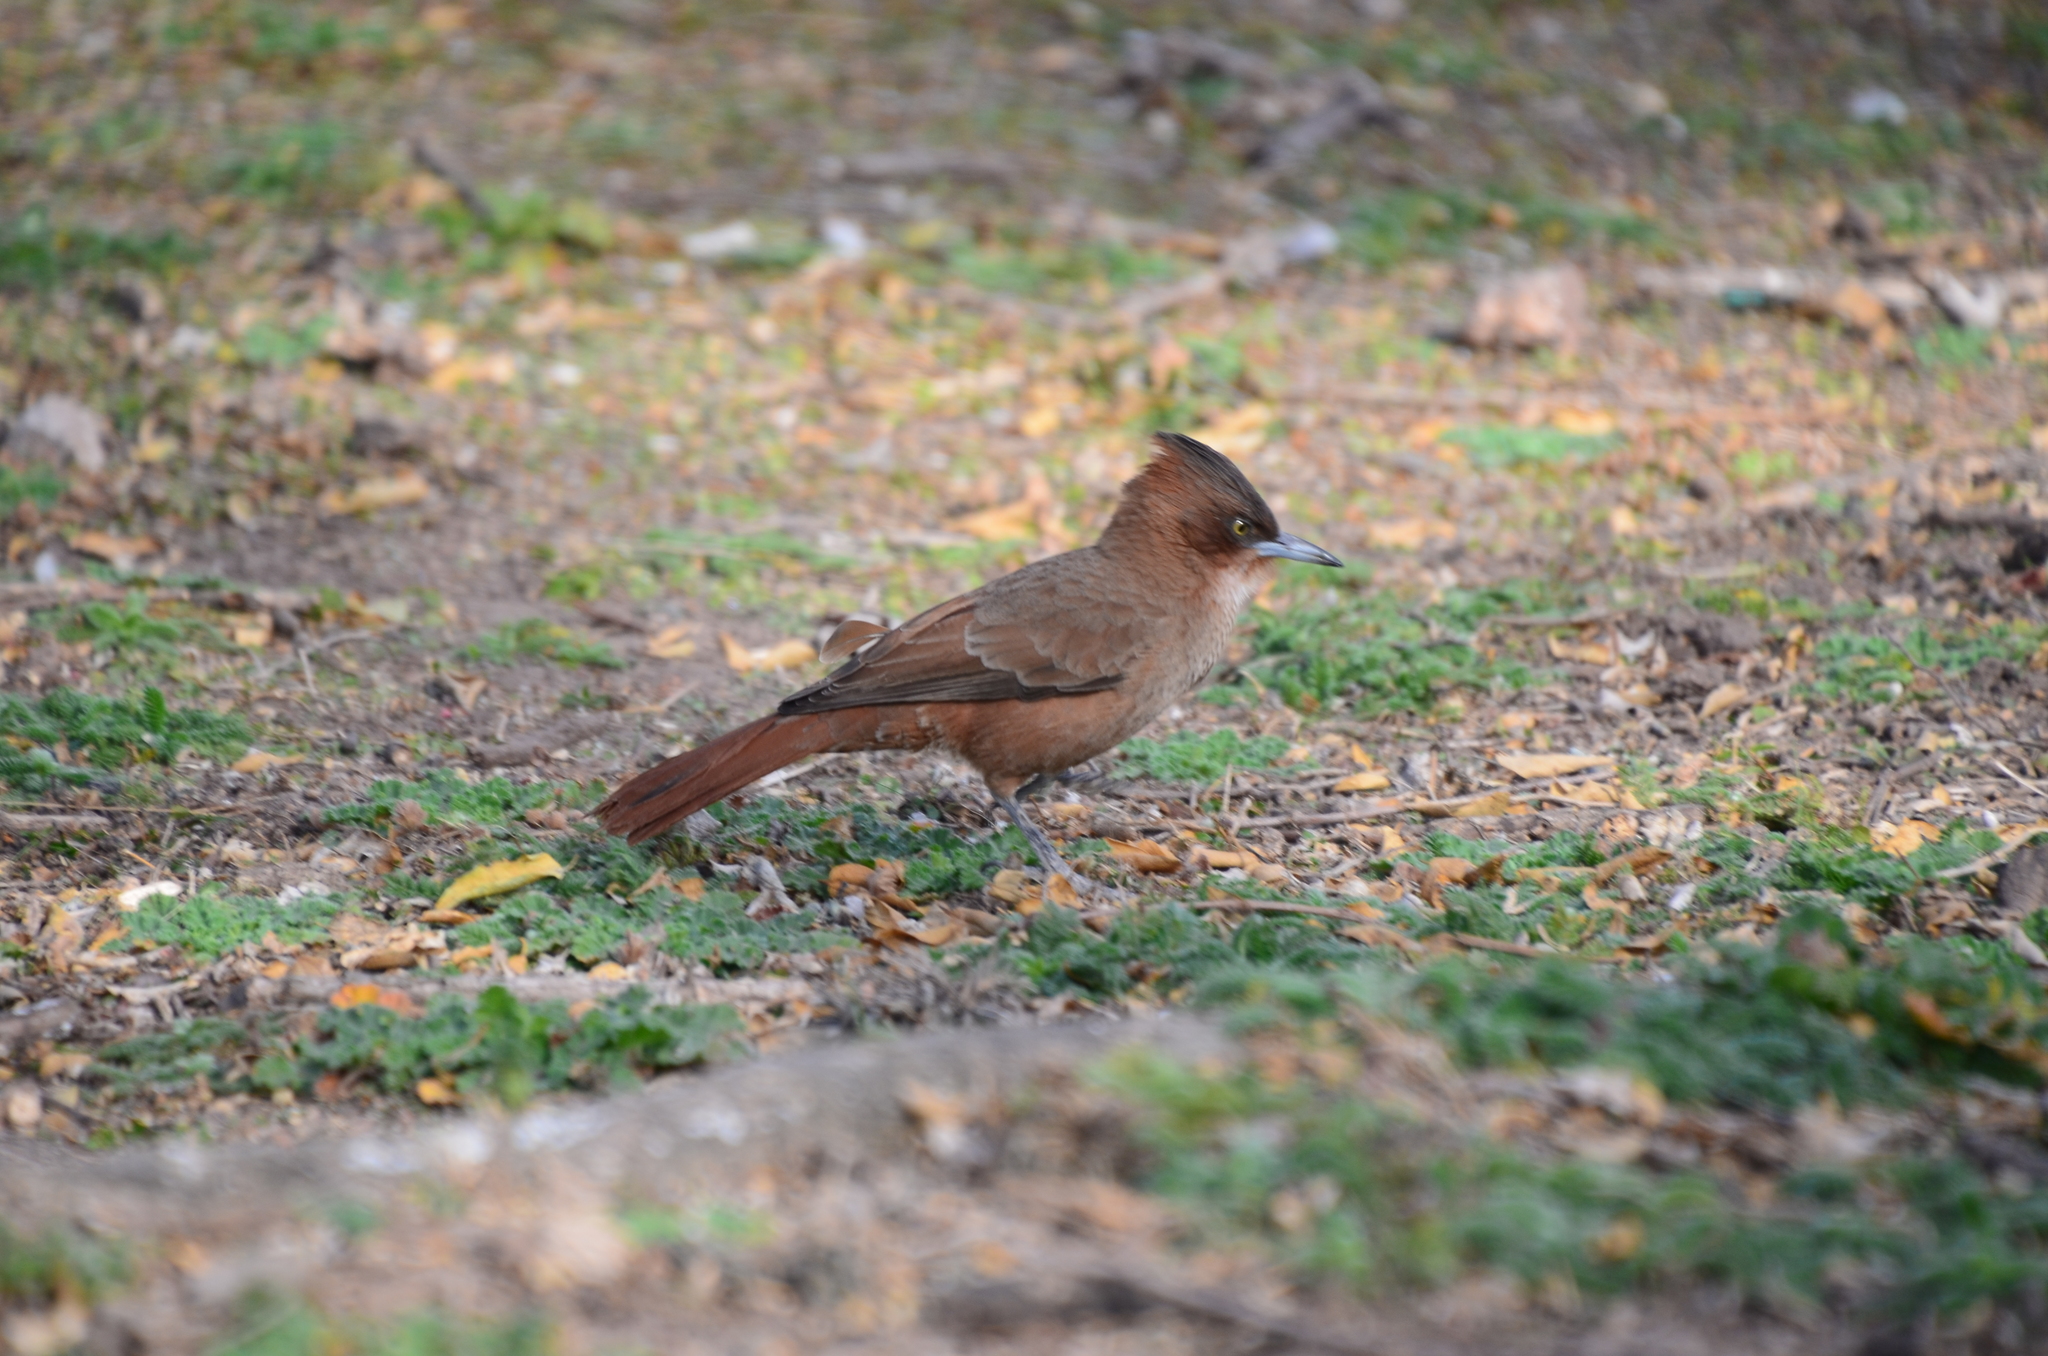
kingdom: Animalia
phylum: Chordata
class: Aves
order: Passeriformes
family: Furnariidae
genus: Pseudoseisura
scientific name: Pseudoseisura lophotes
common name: Brown cacholote
